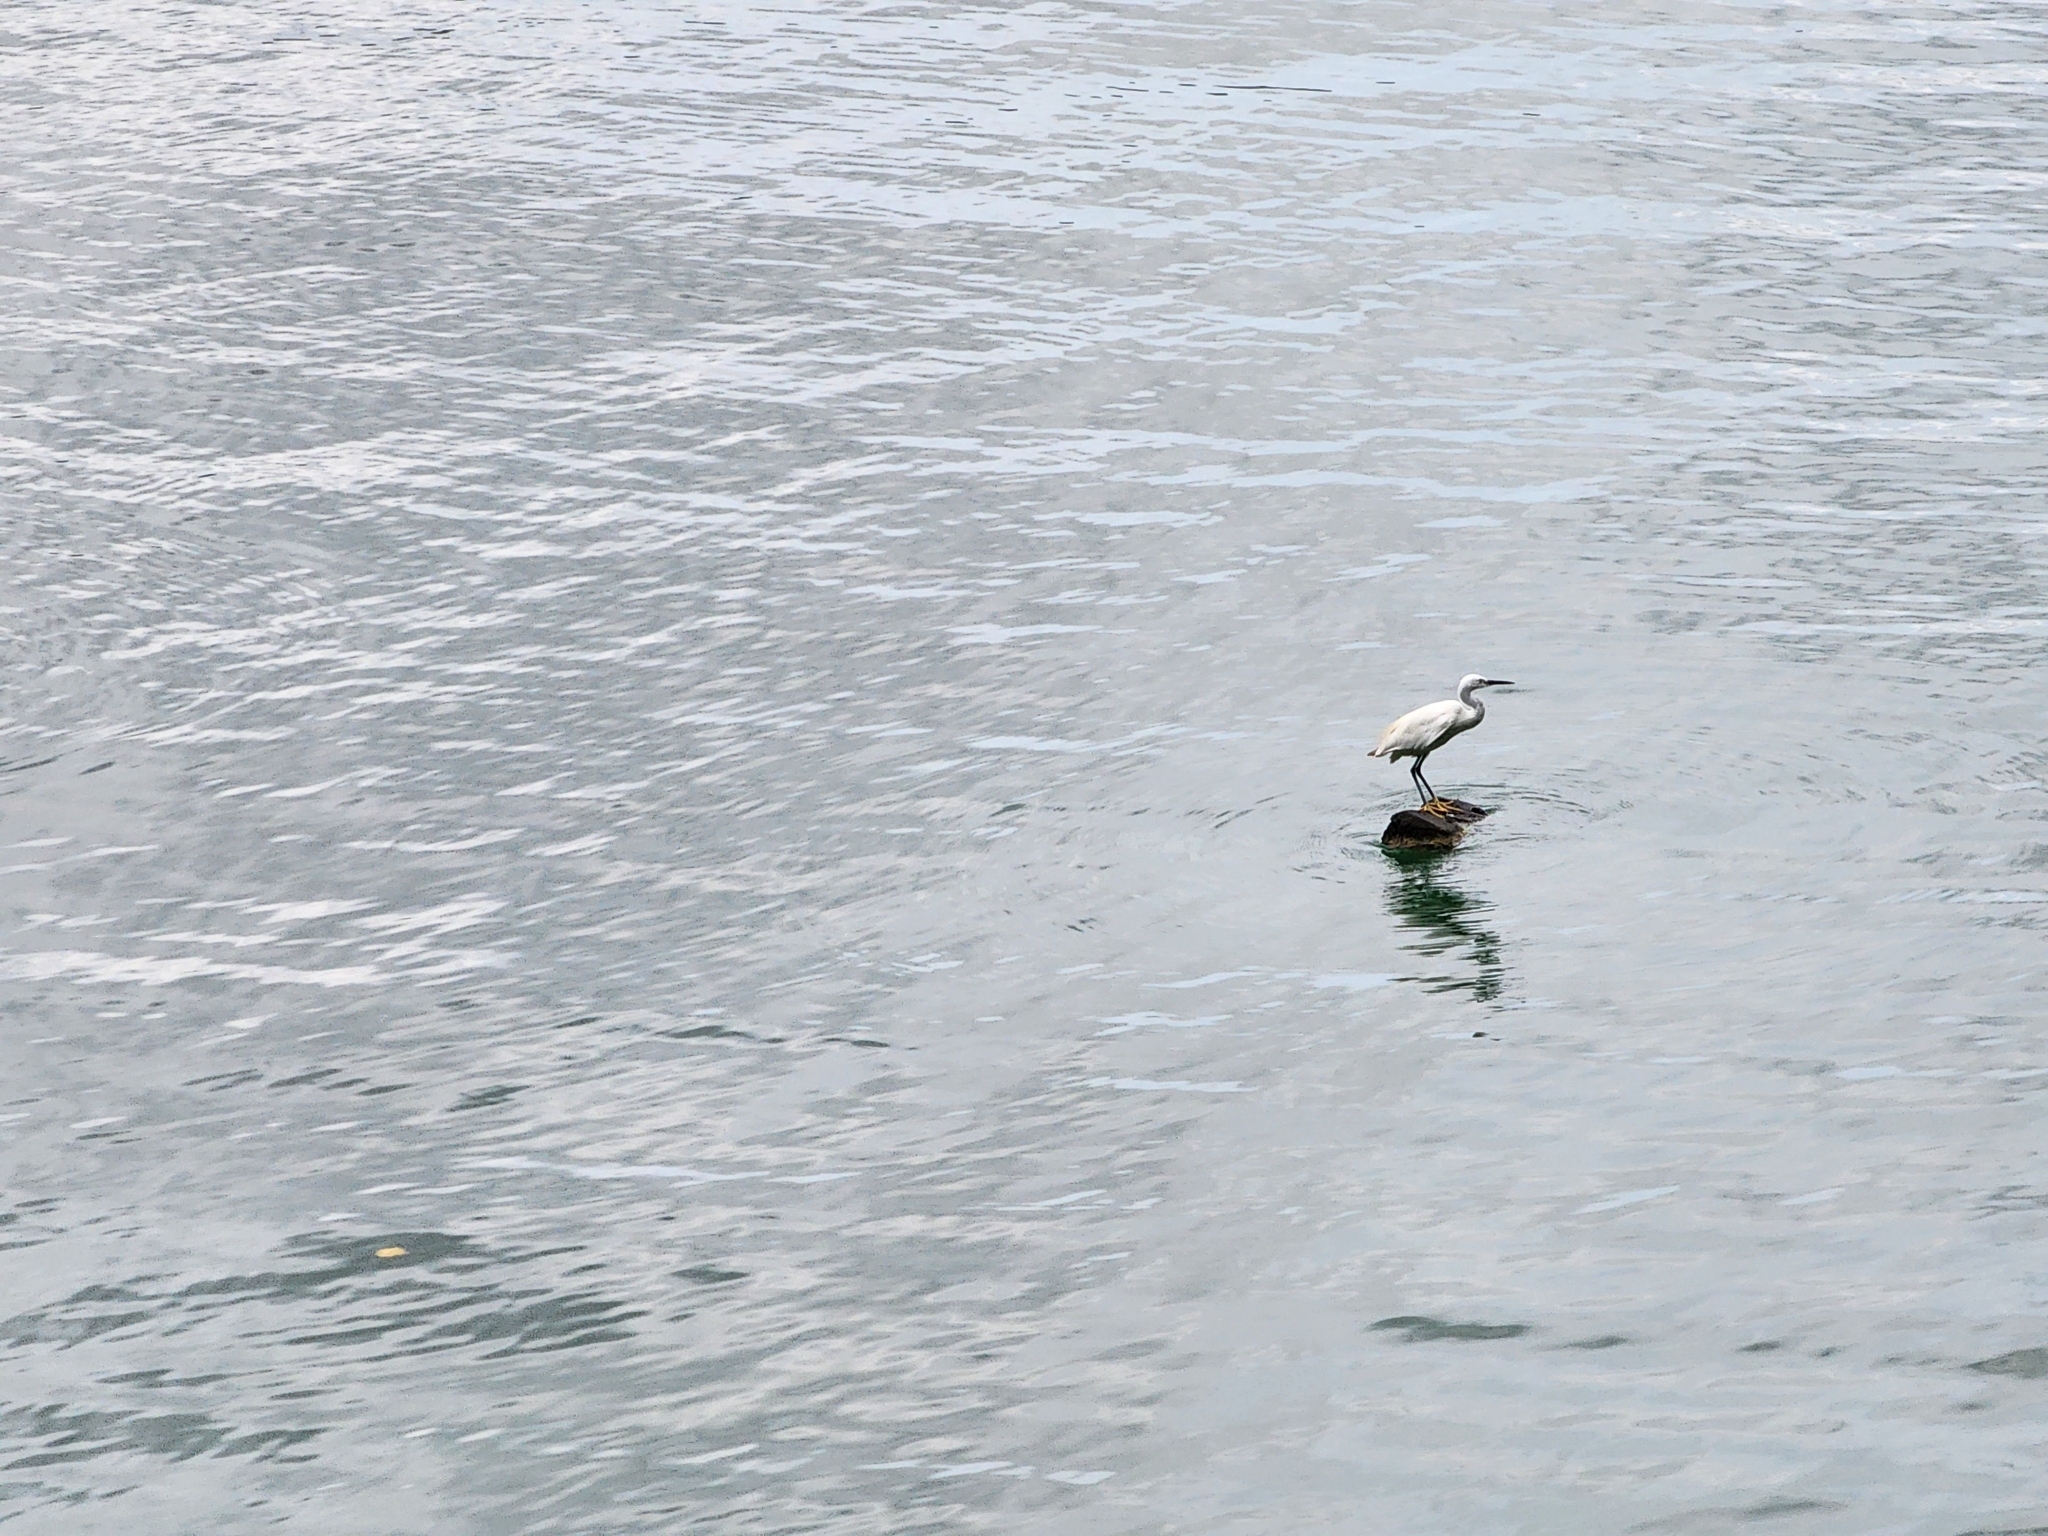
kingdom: Animalia
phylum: Chordata
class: Aves
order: Pelecaniformes
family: Ardeidae
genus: Egretta
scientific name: Egretta garzetta
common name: Little egret
